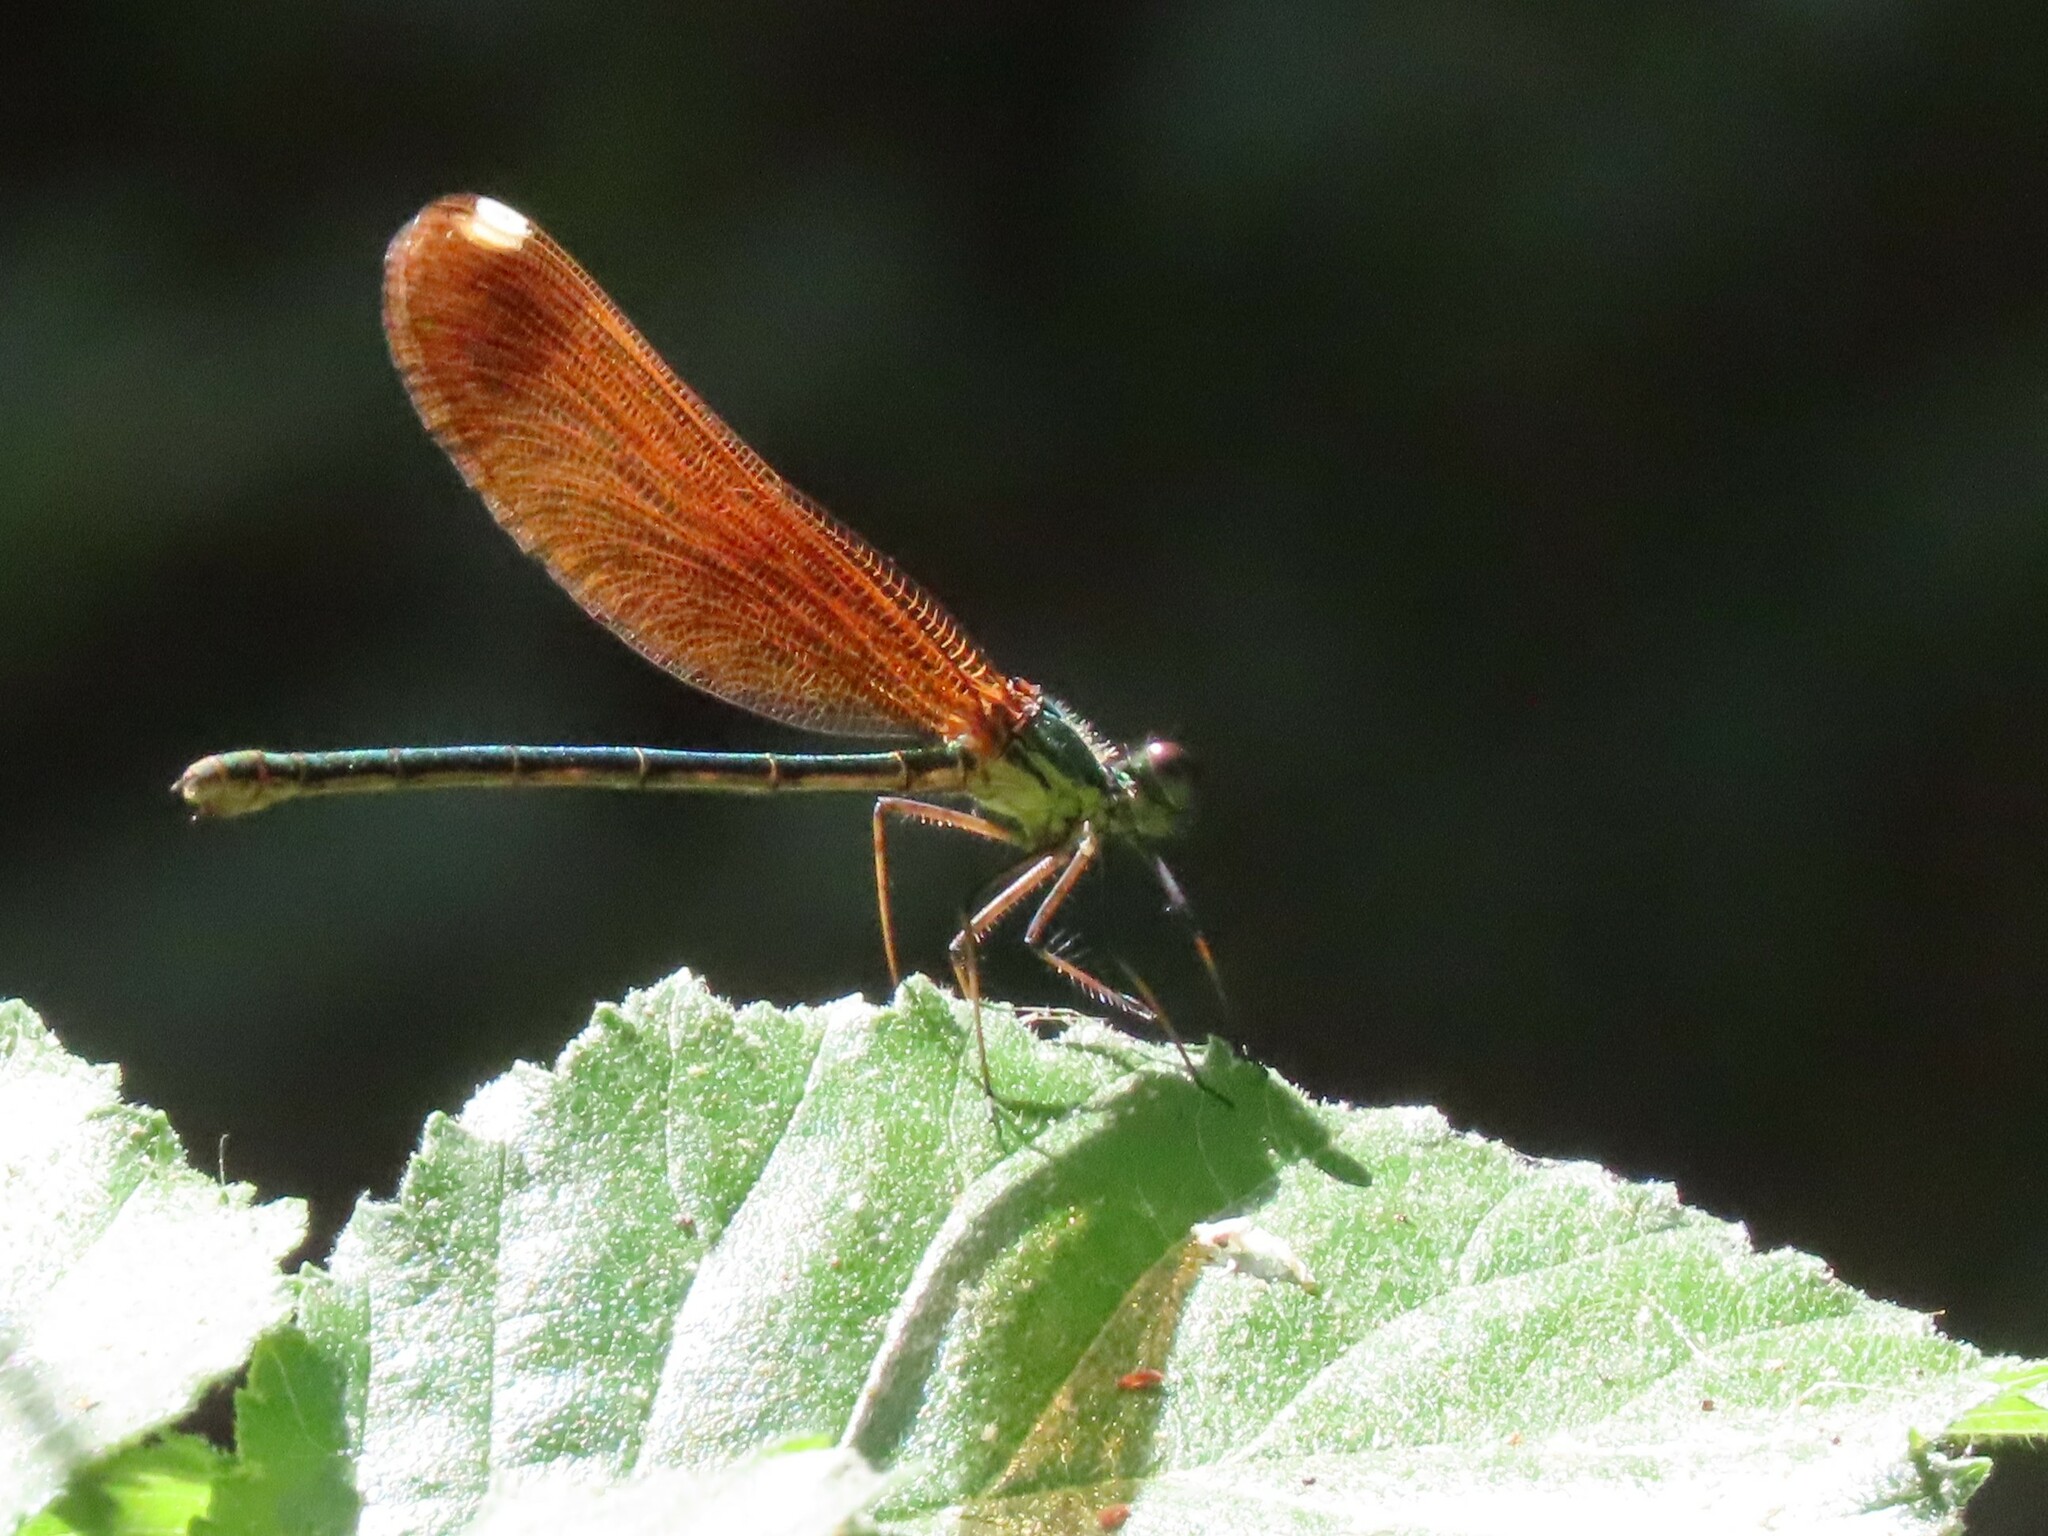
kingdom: Animalia
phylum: Arthropoda
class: Insecta
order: Odonata
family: Calopterygidae
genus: Calopteryx
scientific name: Calopteryx haemorrhoidalis
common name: Copper demoiselle
